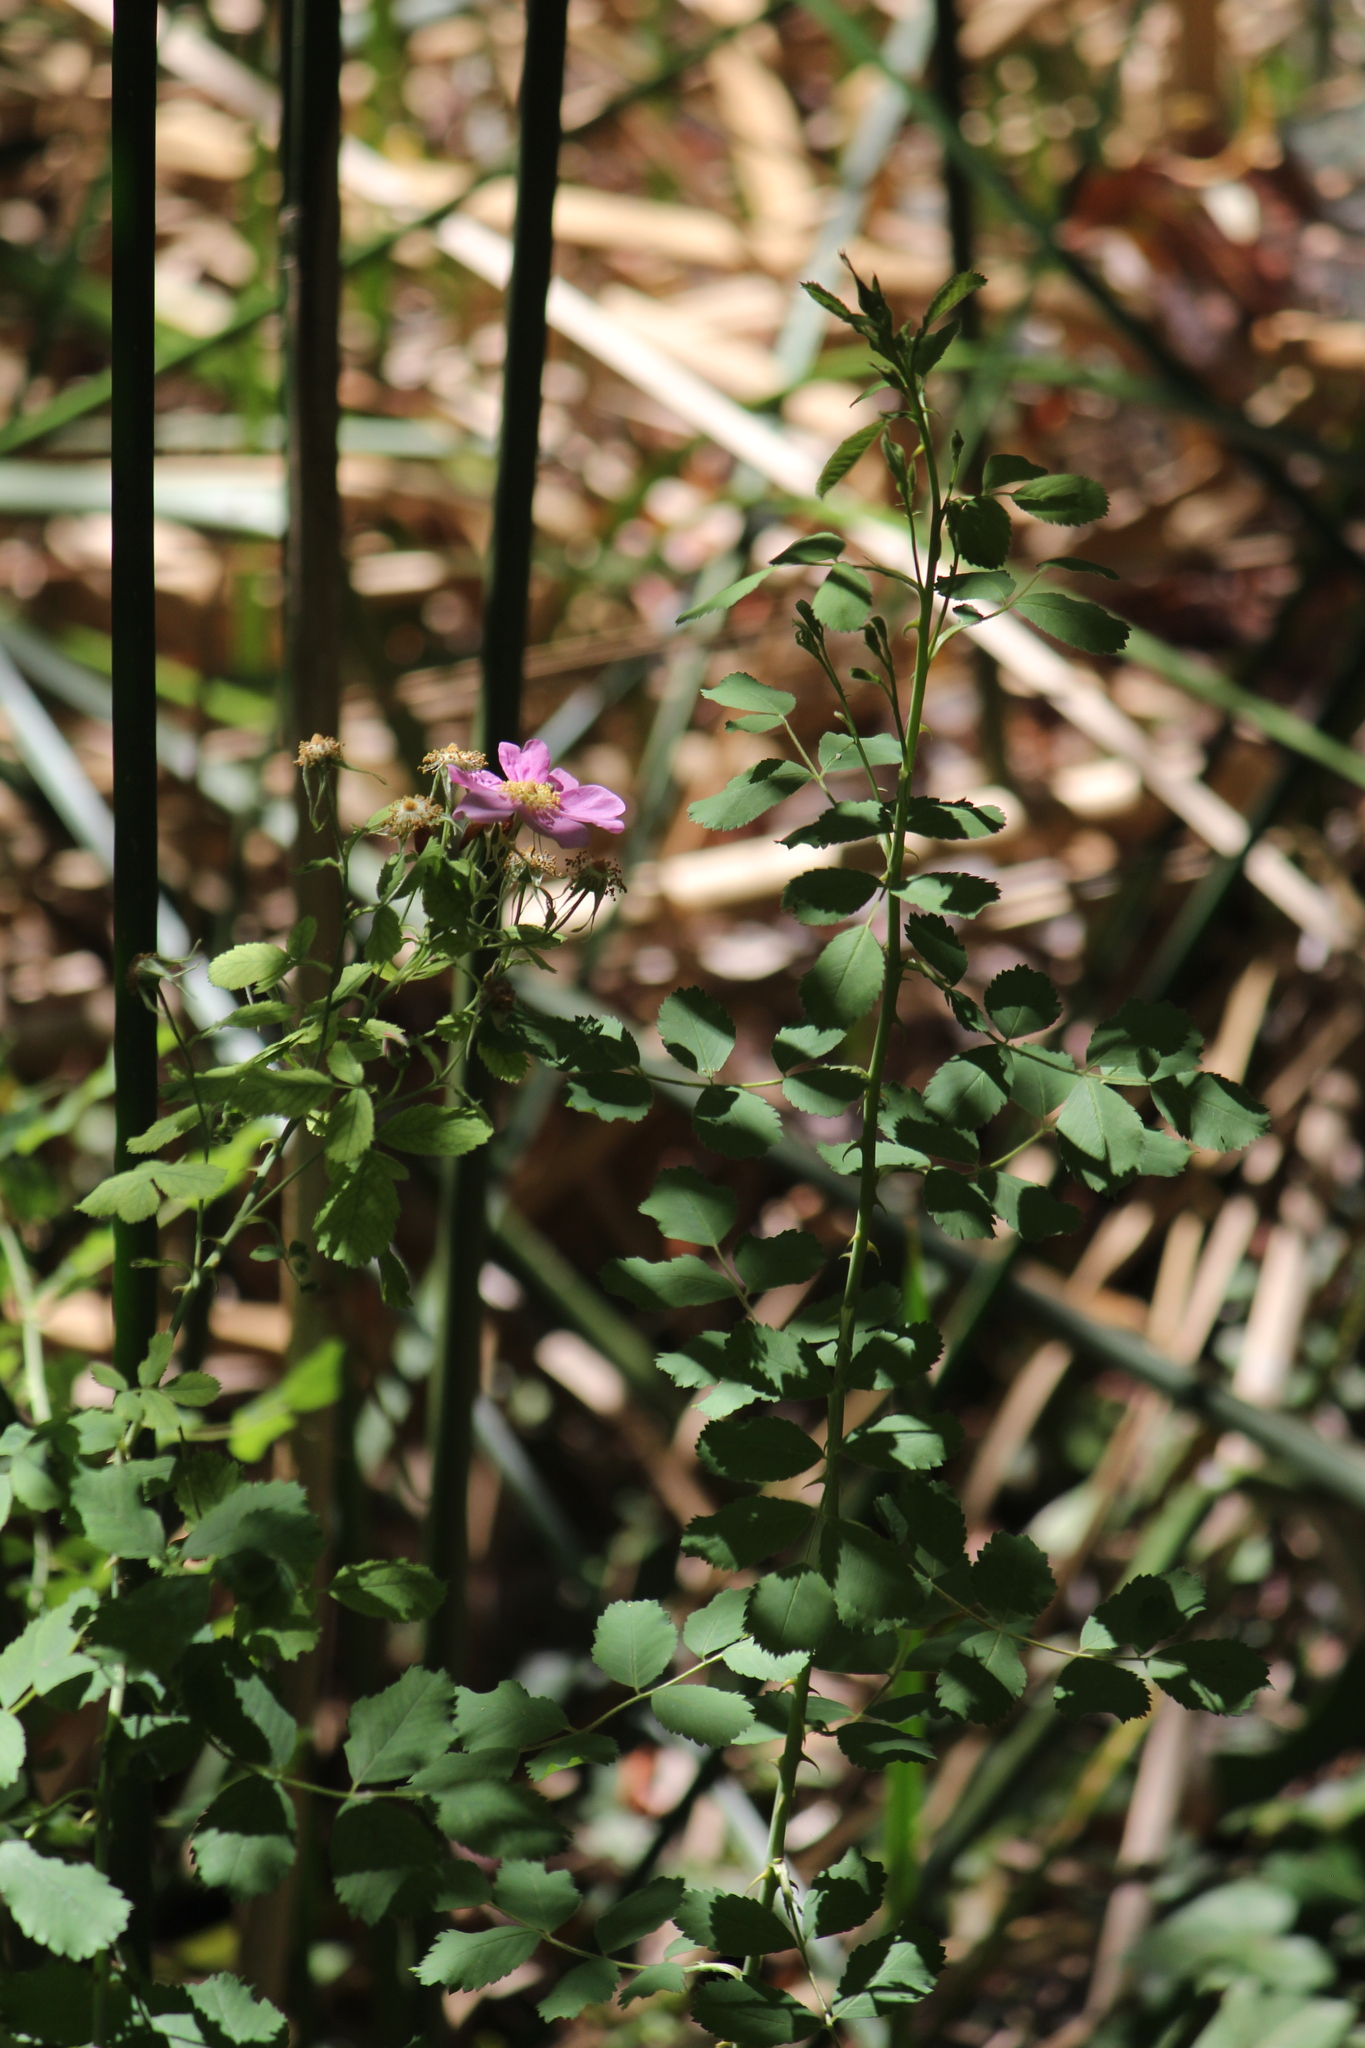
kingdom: Plantae
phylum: Tracheophyta
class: Magnoliopsida
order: Rosales
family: Rosaceae
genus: Rosa
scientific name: Rosa californica
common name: California rose
